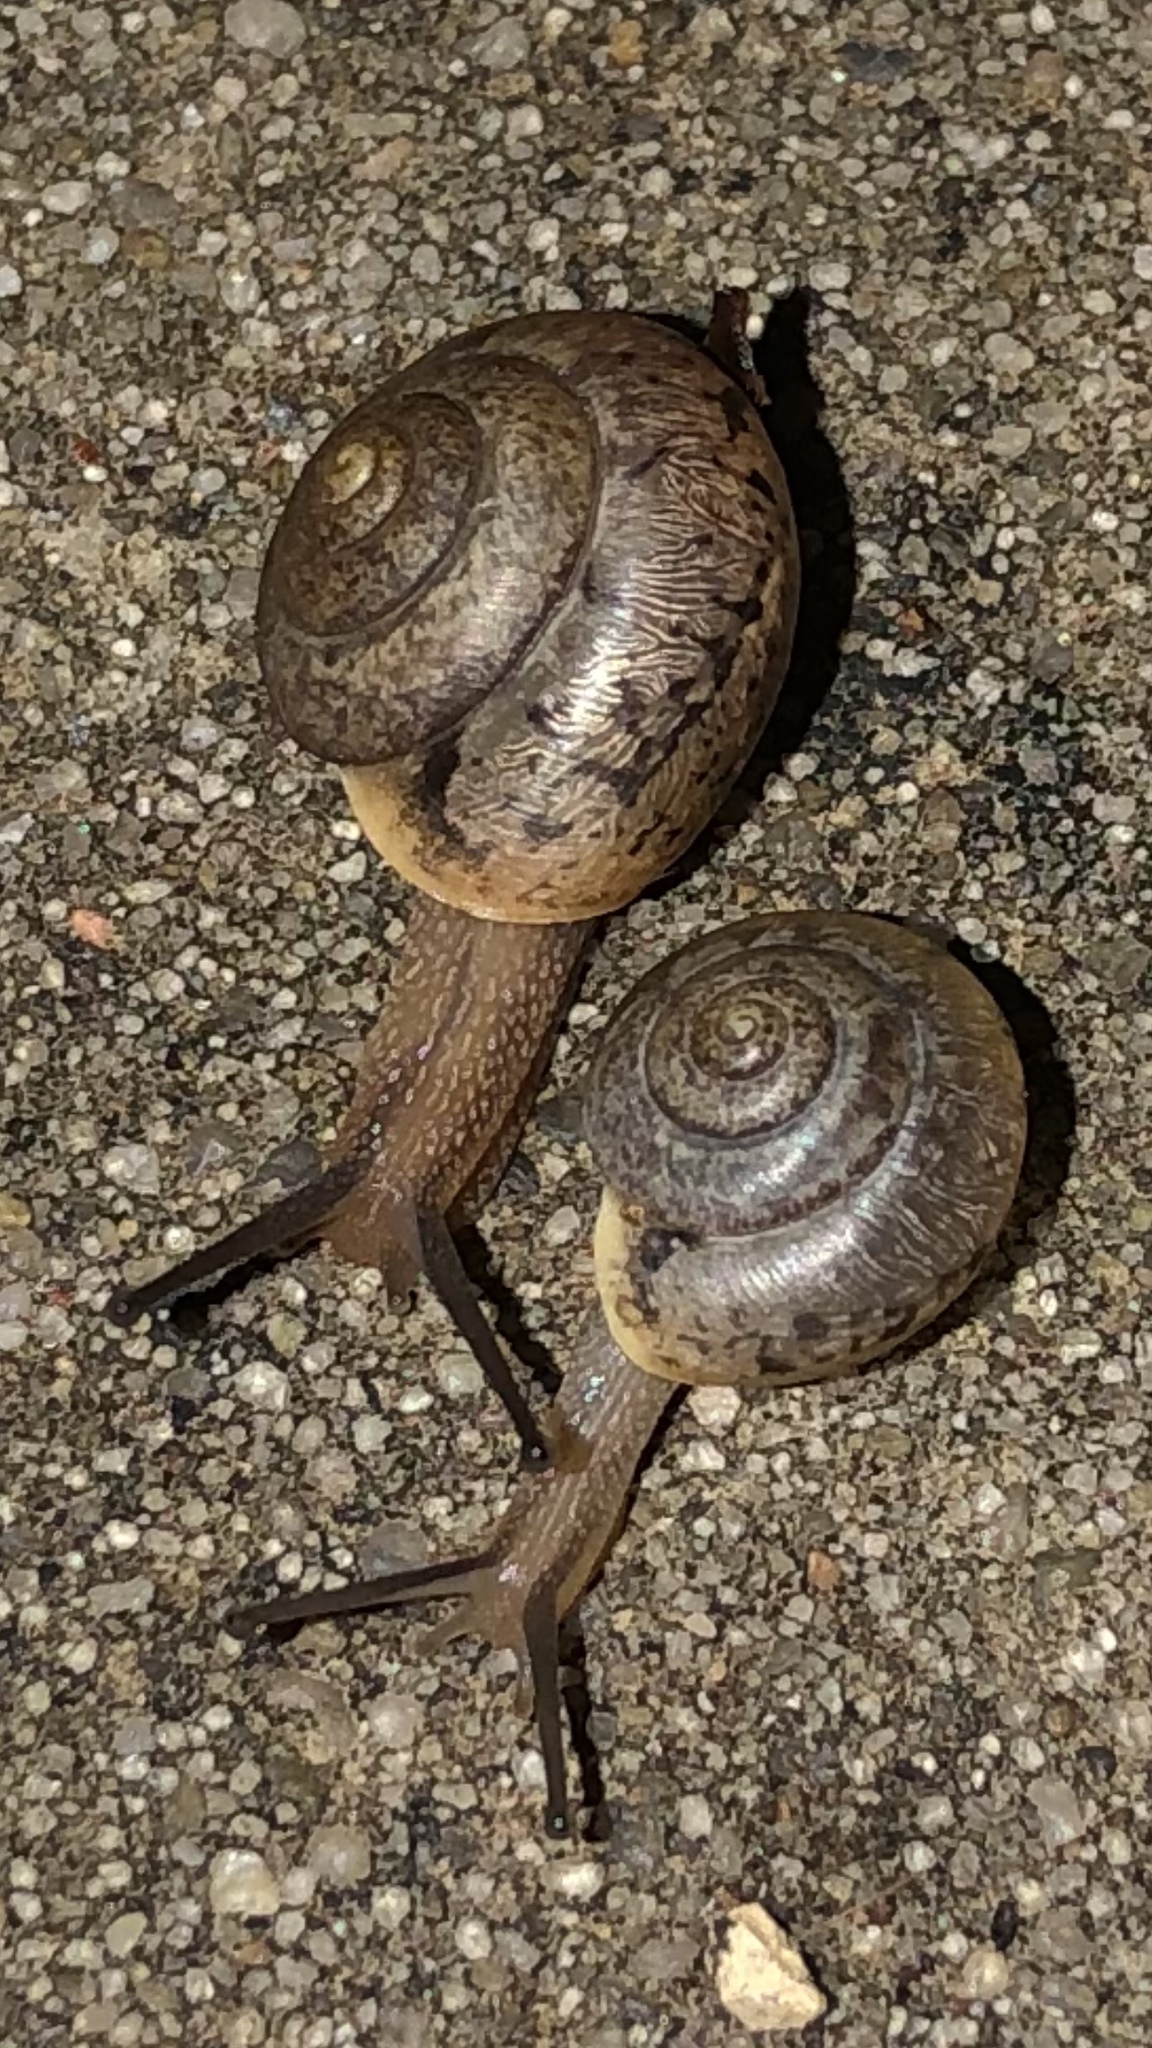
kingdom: Animalia
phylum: Mollusca
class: Gastropoda
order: Stylommatophora
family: Camaenidae
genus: Bradybaena
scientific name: Bradybaena similaris
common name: Asian trampsnail
